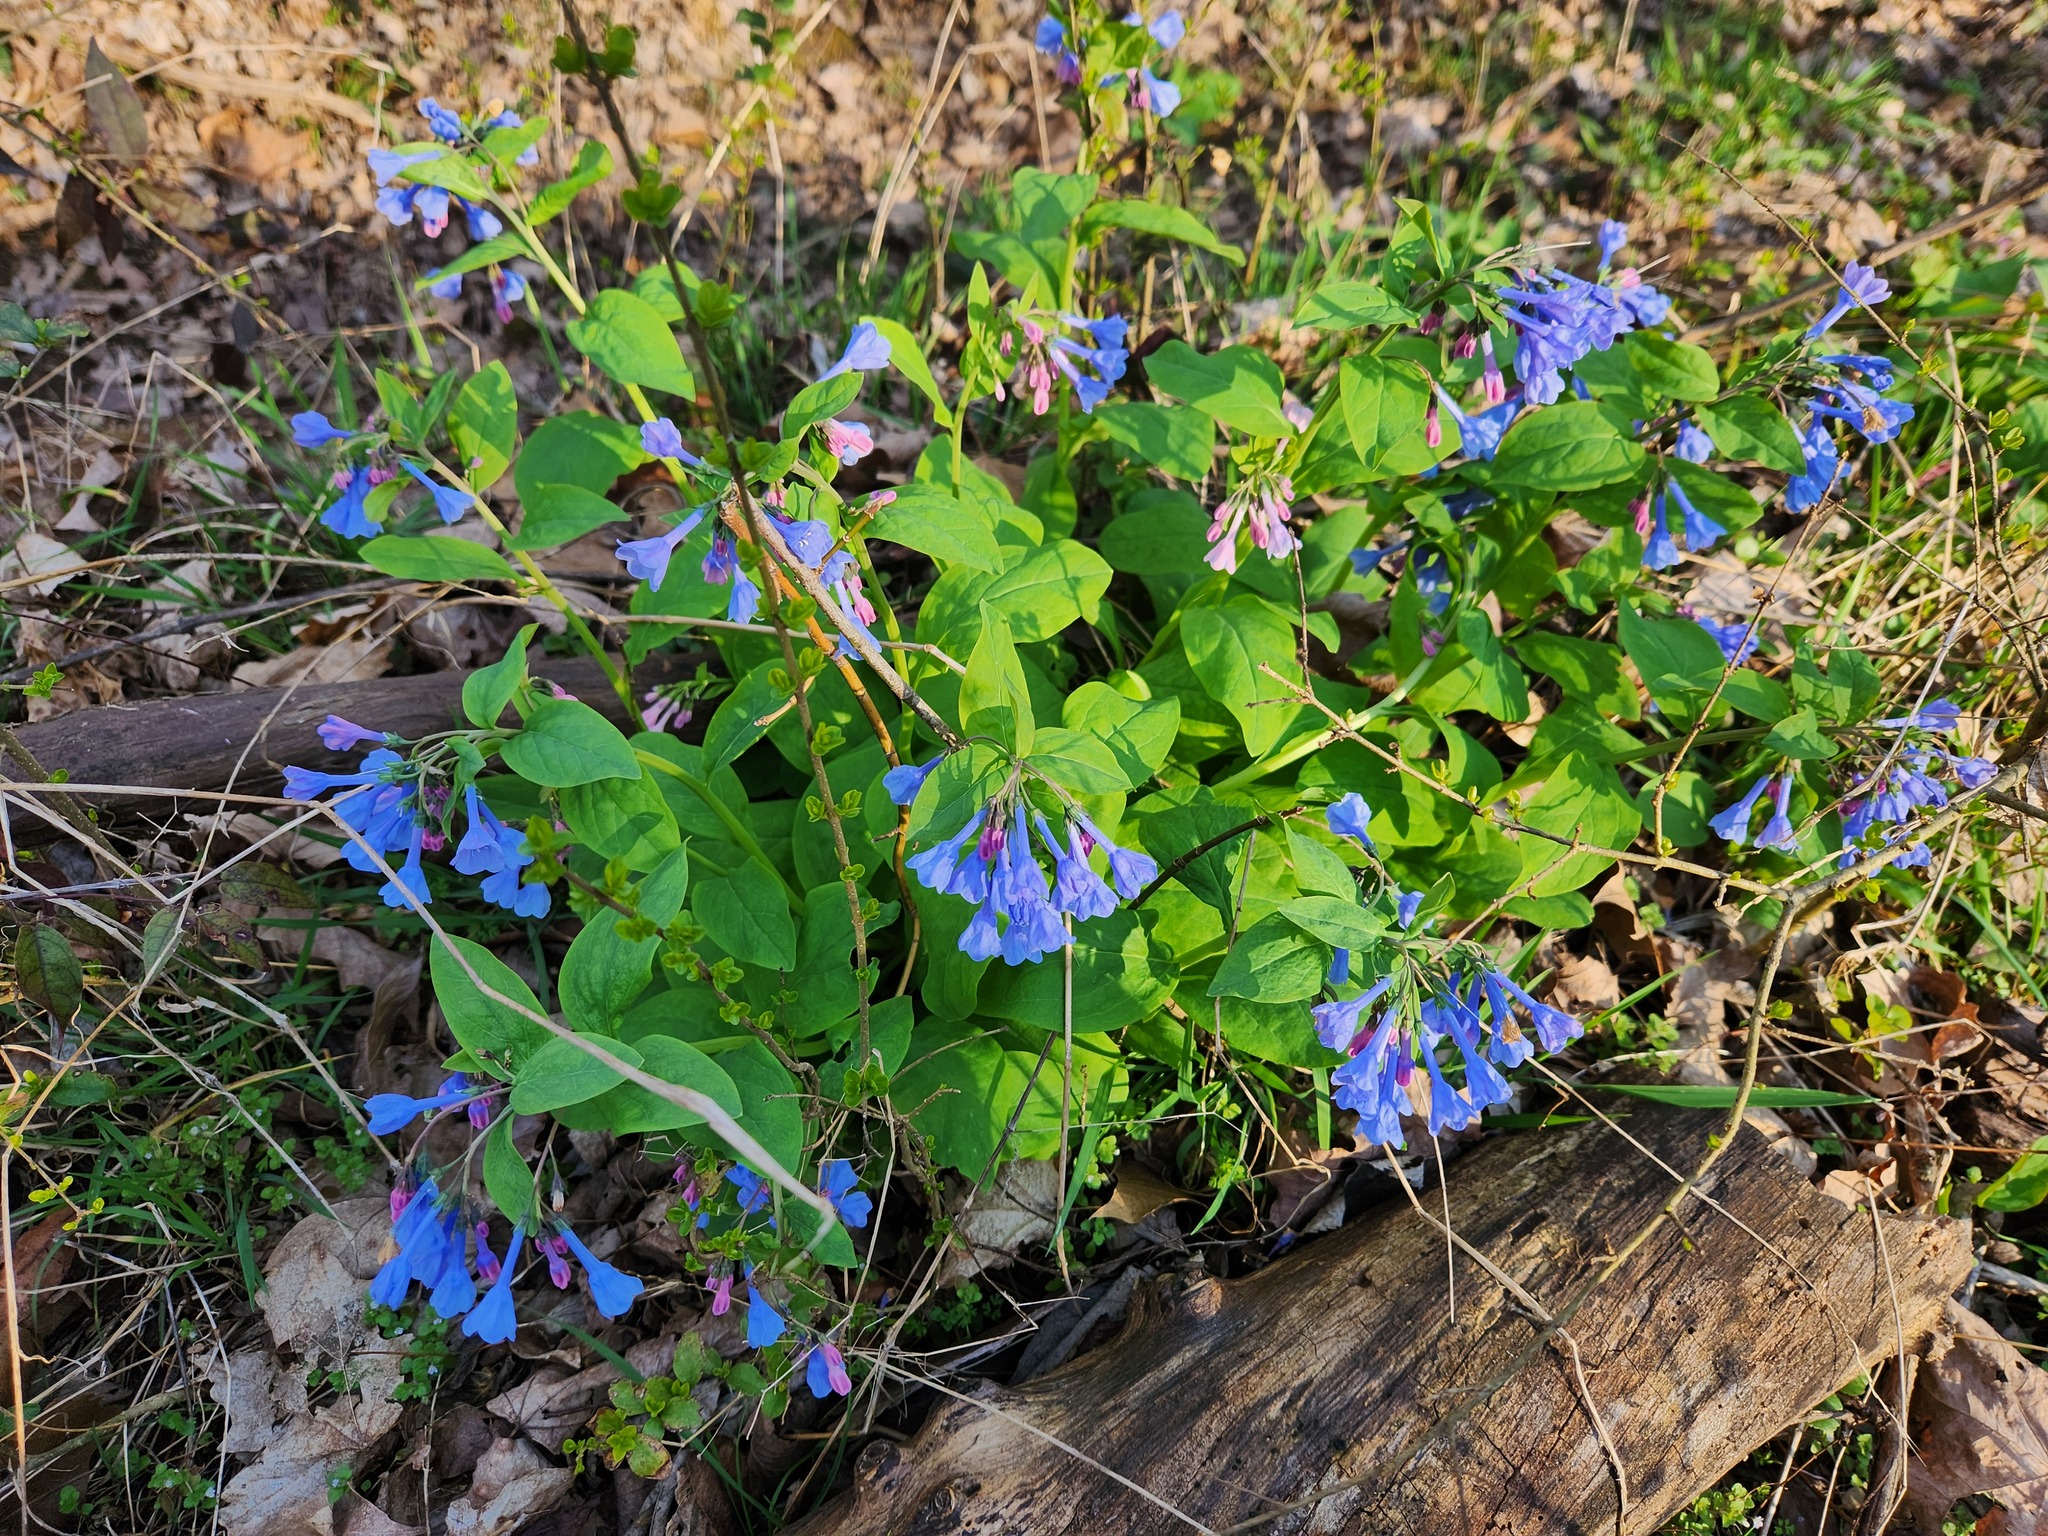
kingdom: Plantae
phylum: Tracheophyta
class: Magnoliopsida
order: Boraginales
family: Boraginaceae
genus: Mertensia
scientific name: Mertensia virginica
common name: Virginia bluebells
